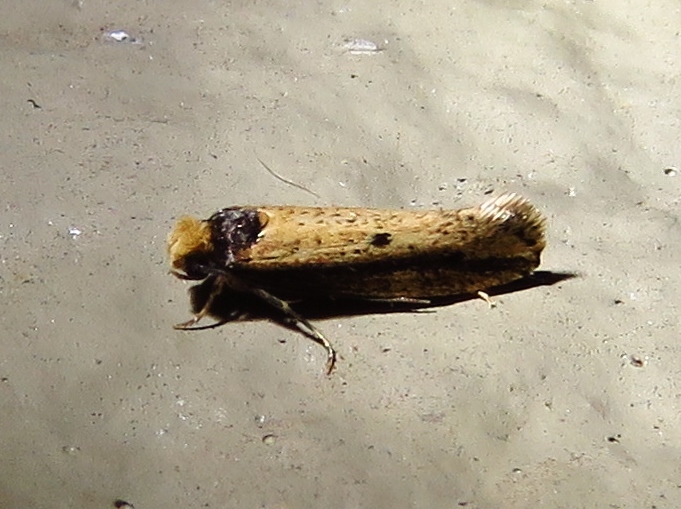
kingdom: Animalia
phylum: Arthropoda
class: Insecta
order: Lepidoptera
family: Tineidae
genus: Tinea
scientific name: Tinea apicimaculella
